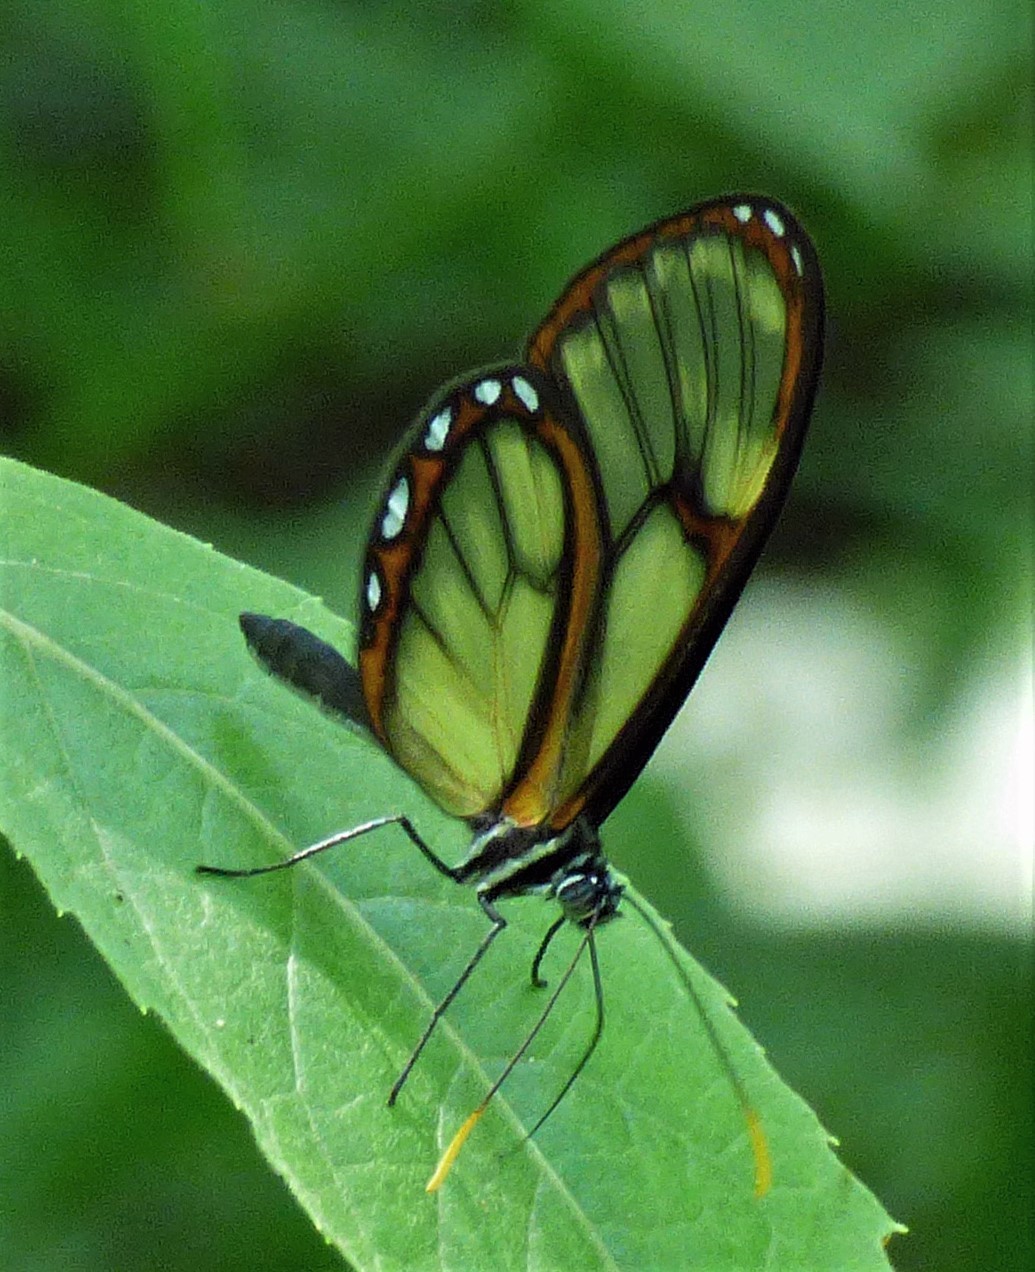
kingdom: Animalia
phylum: Arthropoda
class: Insecta
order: Lepidoptera
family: Nymphalidae
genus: Pteronymia
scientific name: Pteronymia ozia
